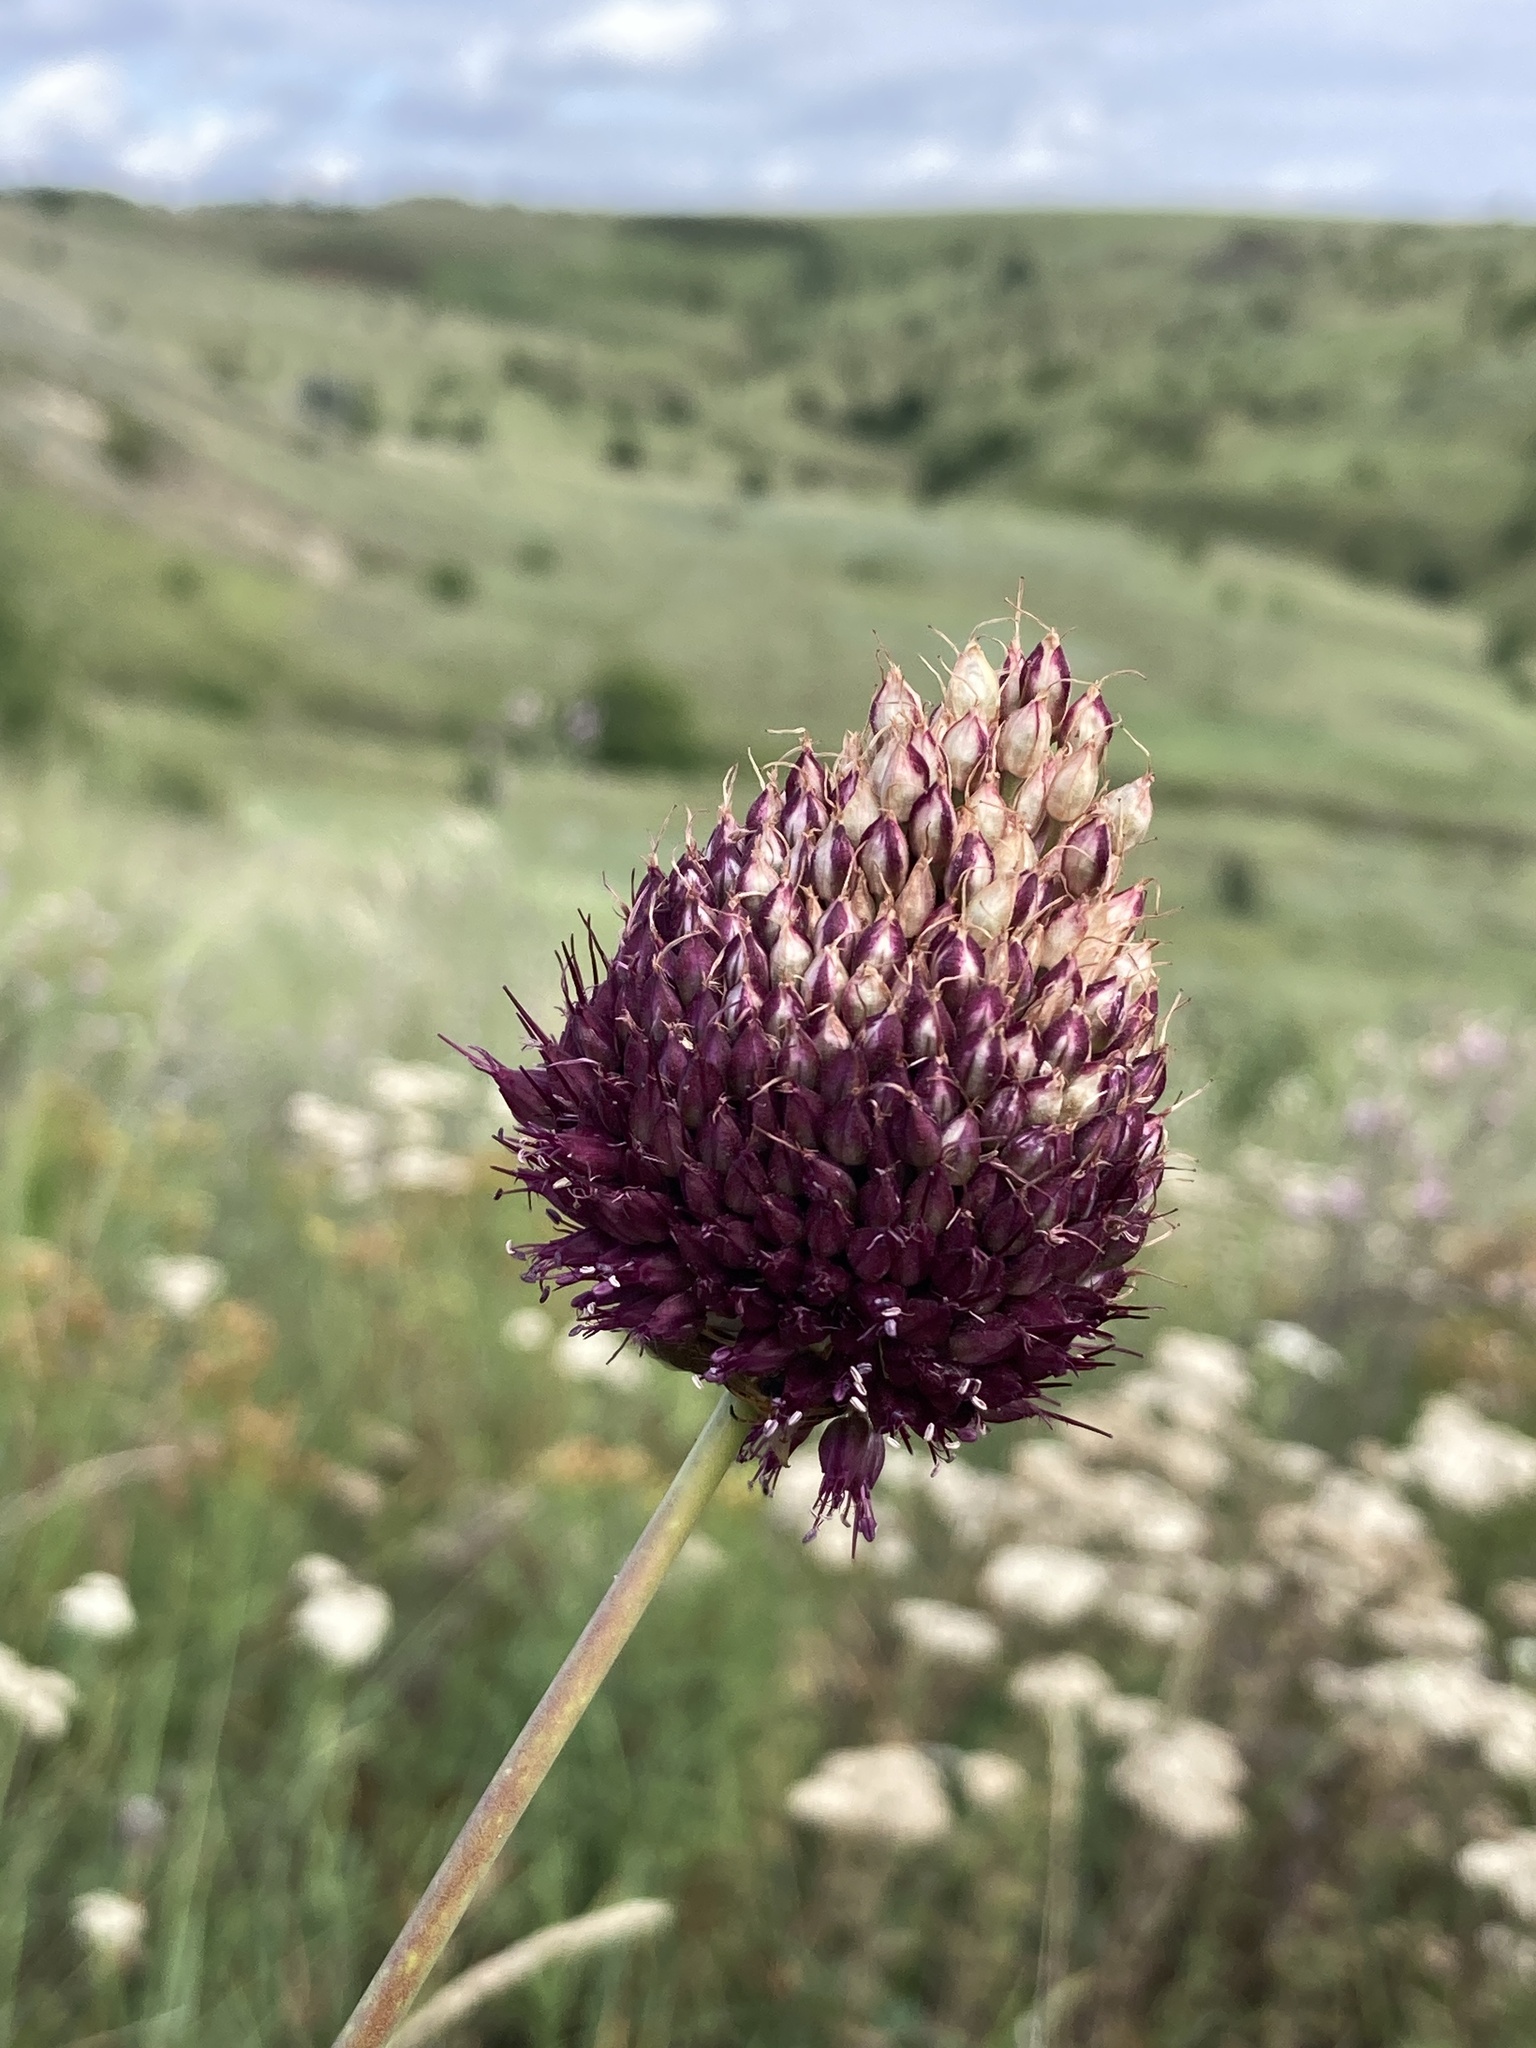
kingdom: Plantae
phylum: Tracheophyta
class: Liliopsida
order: Asparagales
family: Amaryllidaceae
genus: Allium
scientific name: Allium sphaerocephalon
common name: Round-headed leek
